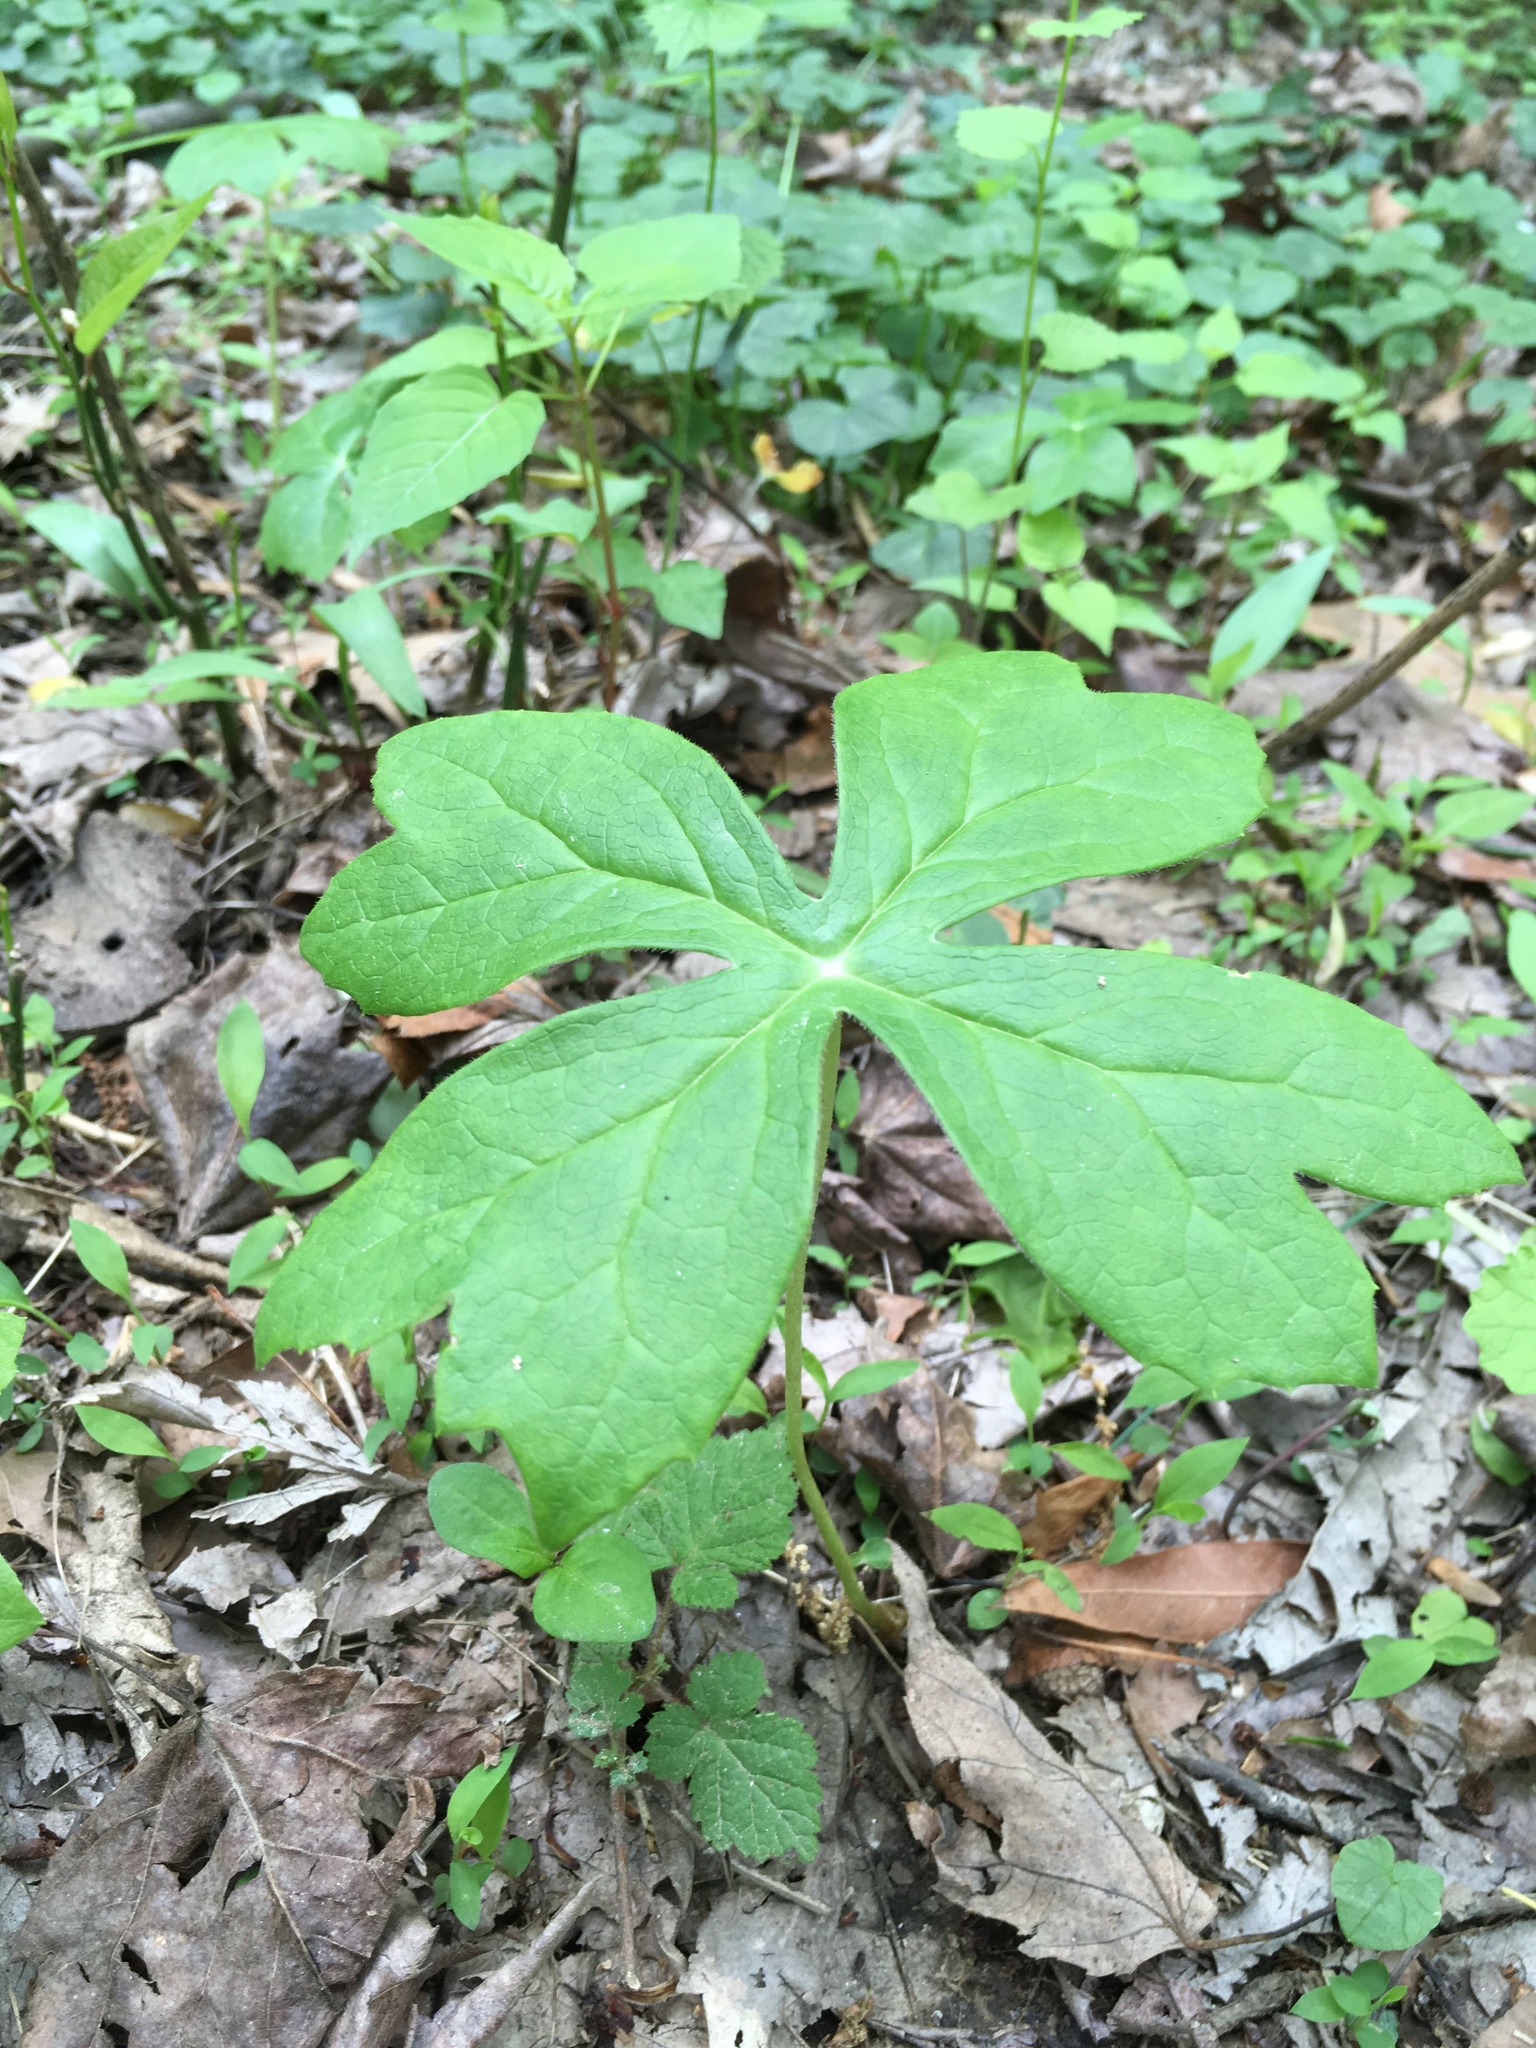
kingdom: Plantae
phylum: Tracheophyta
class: Magnoliopsida
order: Ranunculales
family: Berberidaceae
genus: Podophyllum
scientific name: Podophyllum peltatum
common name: Wild mandrake
